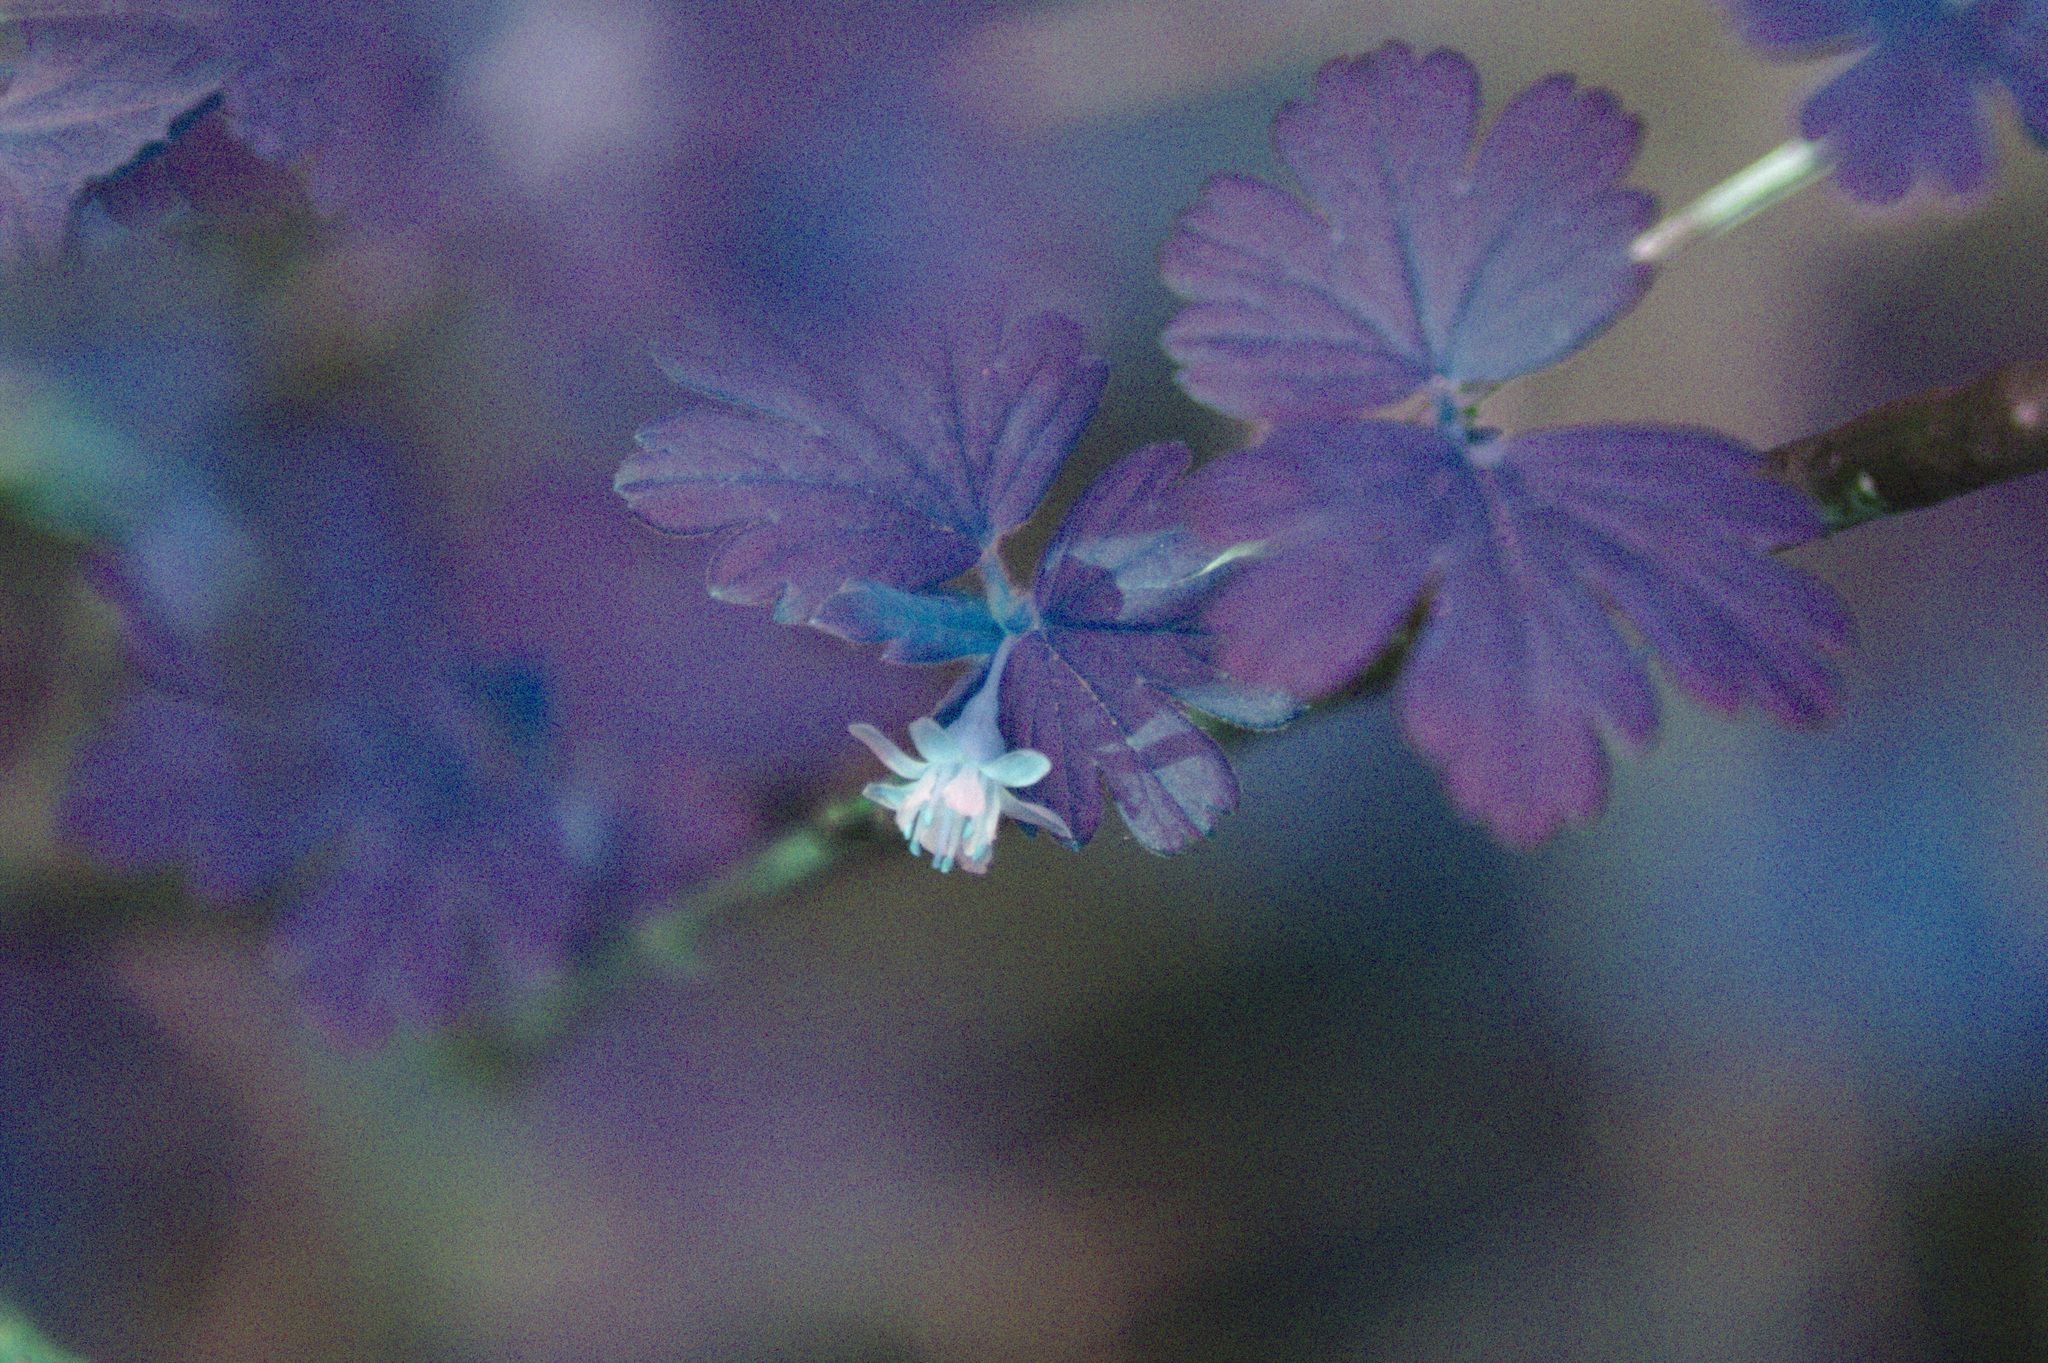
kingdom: Plantae
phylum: Tracheophyta
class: Magnoliopsida
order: Saxifragales
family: Grossulariaceae
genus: Ribes
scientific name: Ribes hirtellum
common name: Hairy gooseberry
